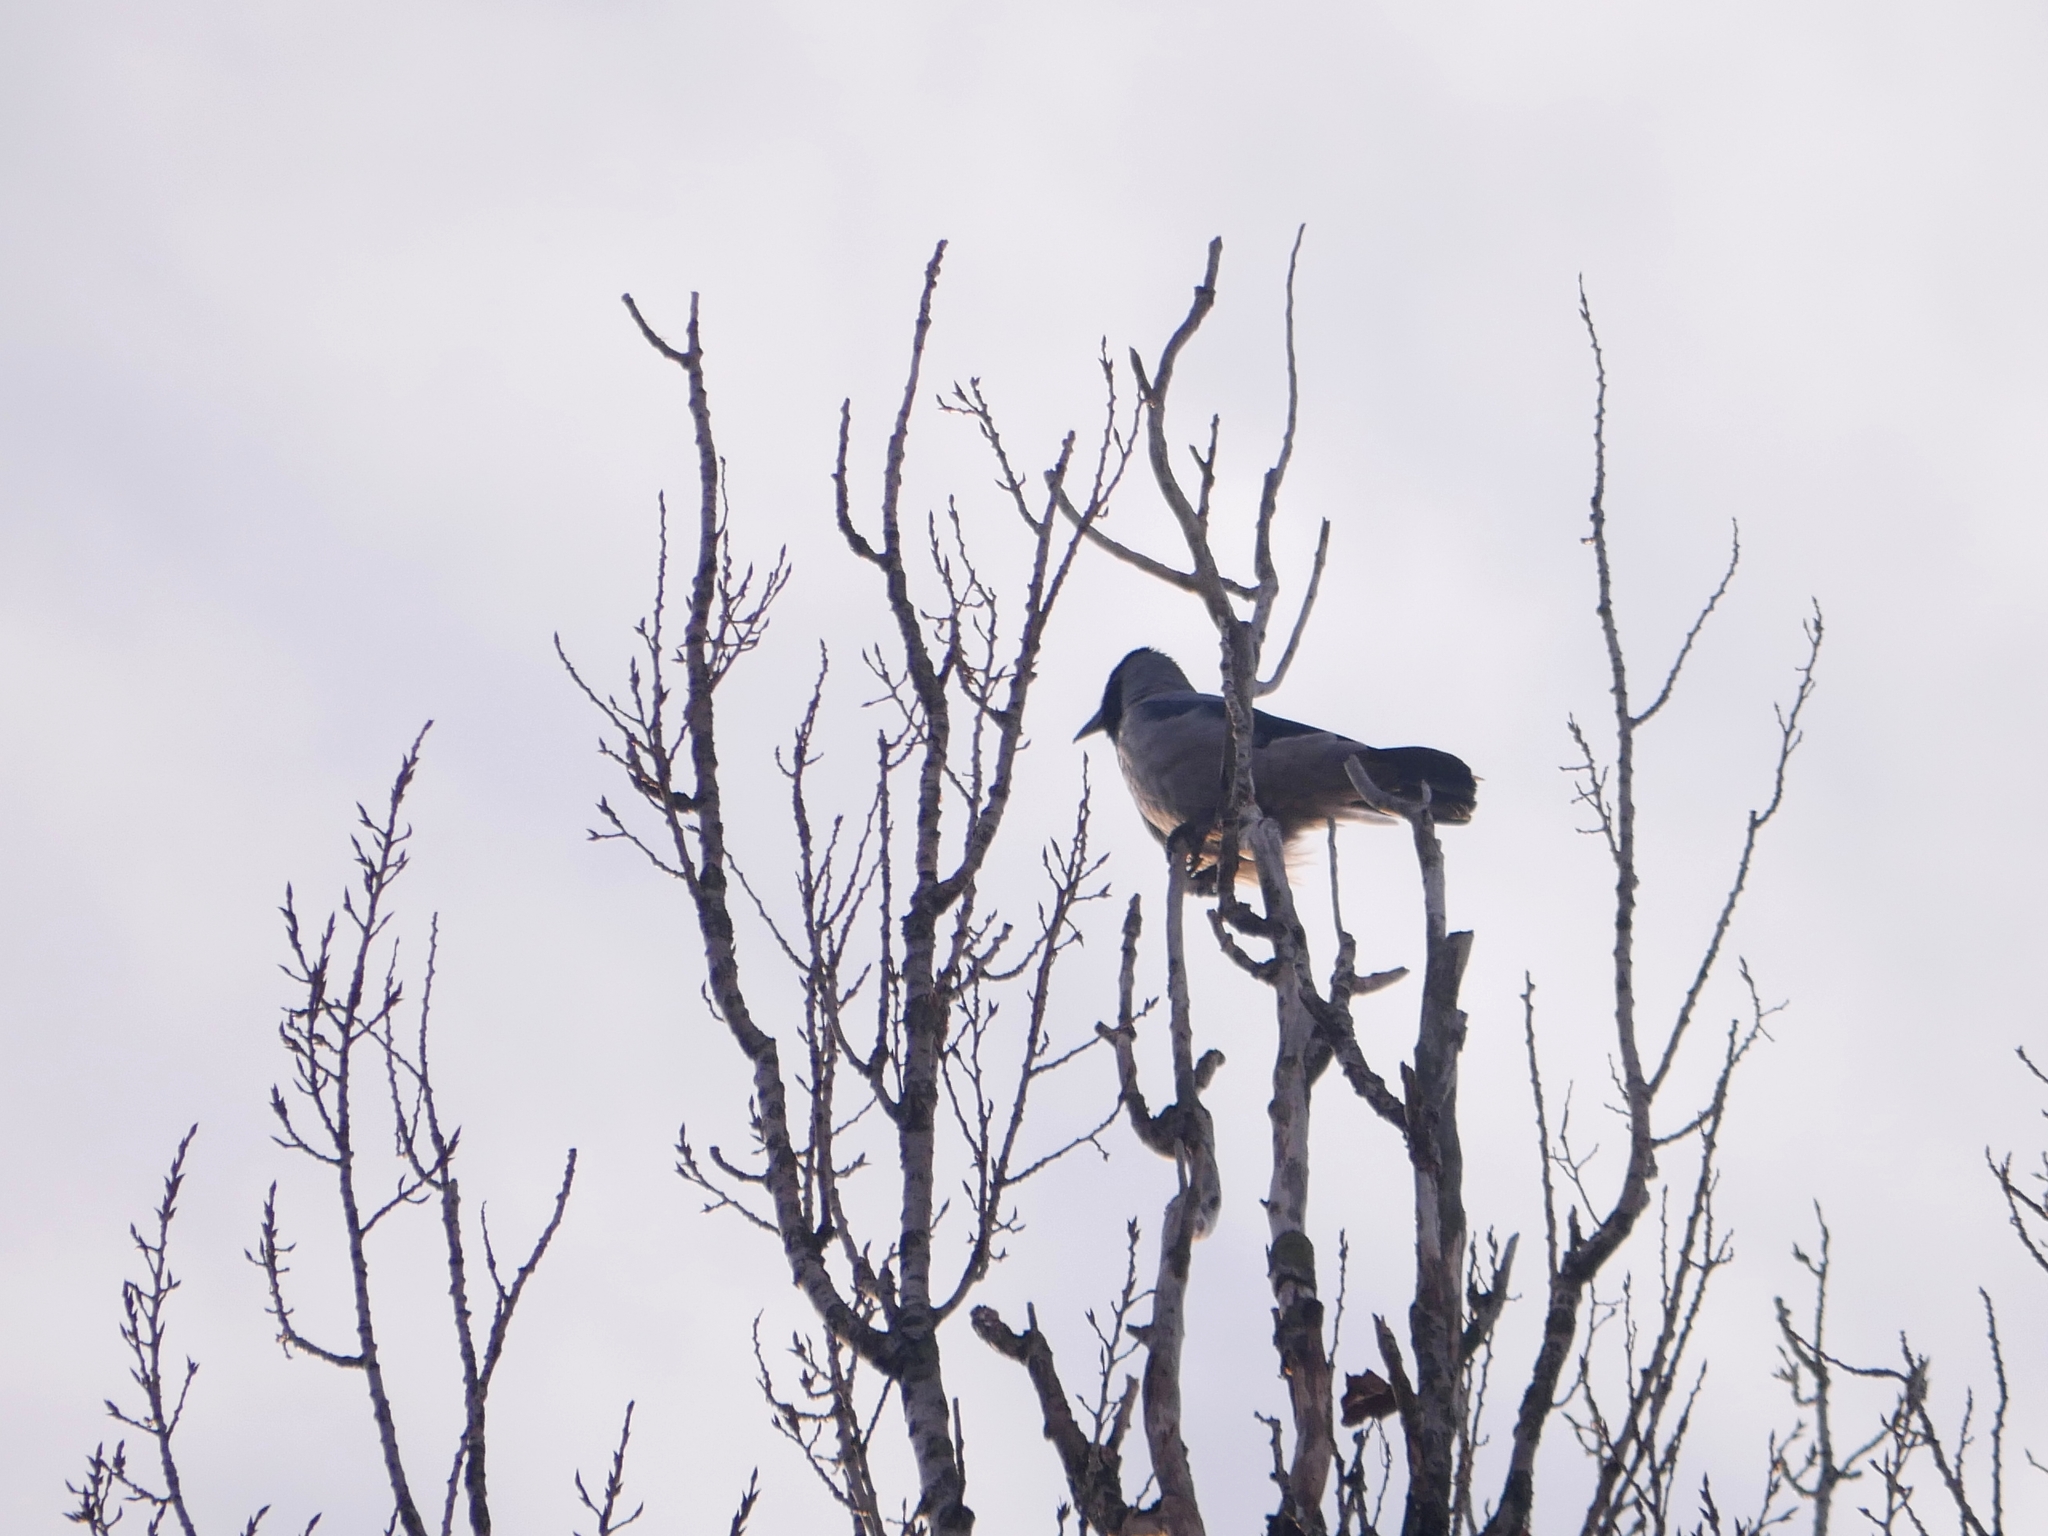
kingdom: Animalia
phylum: Chordata
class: Aves
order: Passeriformes
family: Corvidae
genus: Corvus
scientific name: Corvus cornix
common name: Hooded crow
